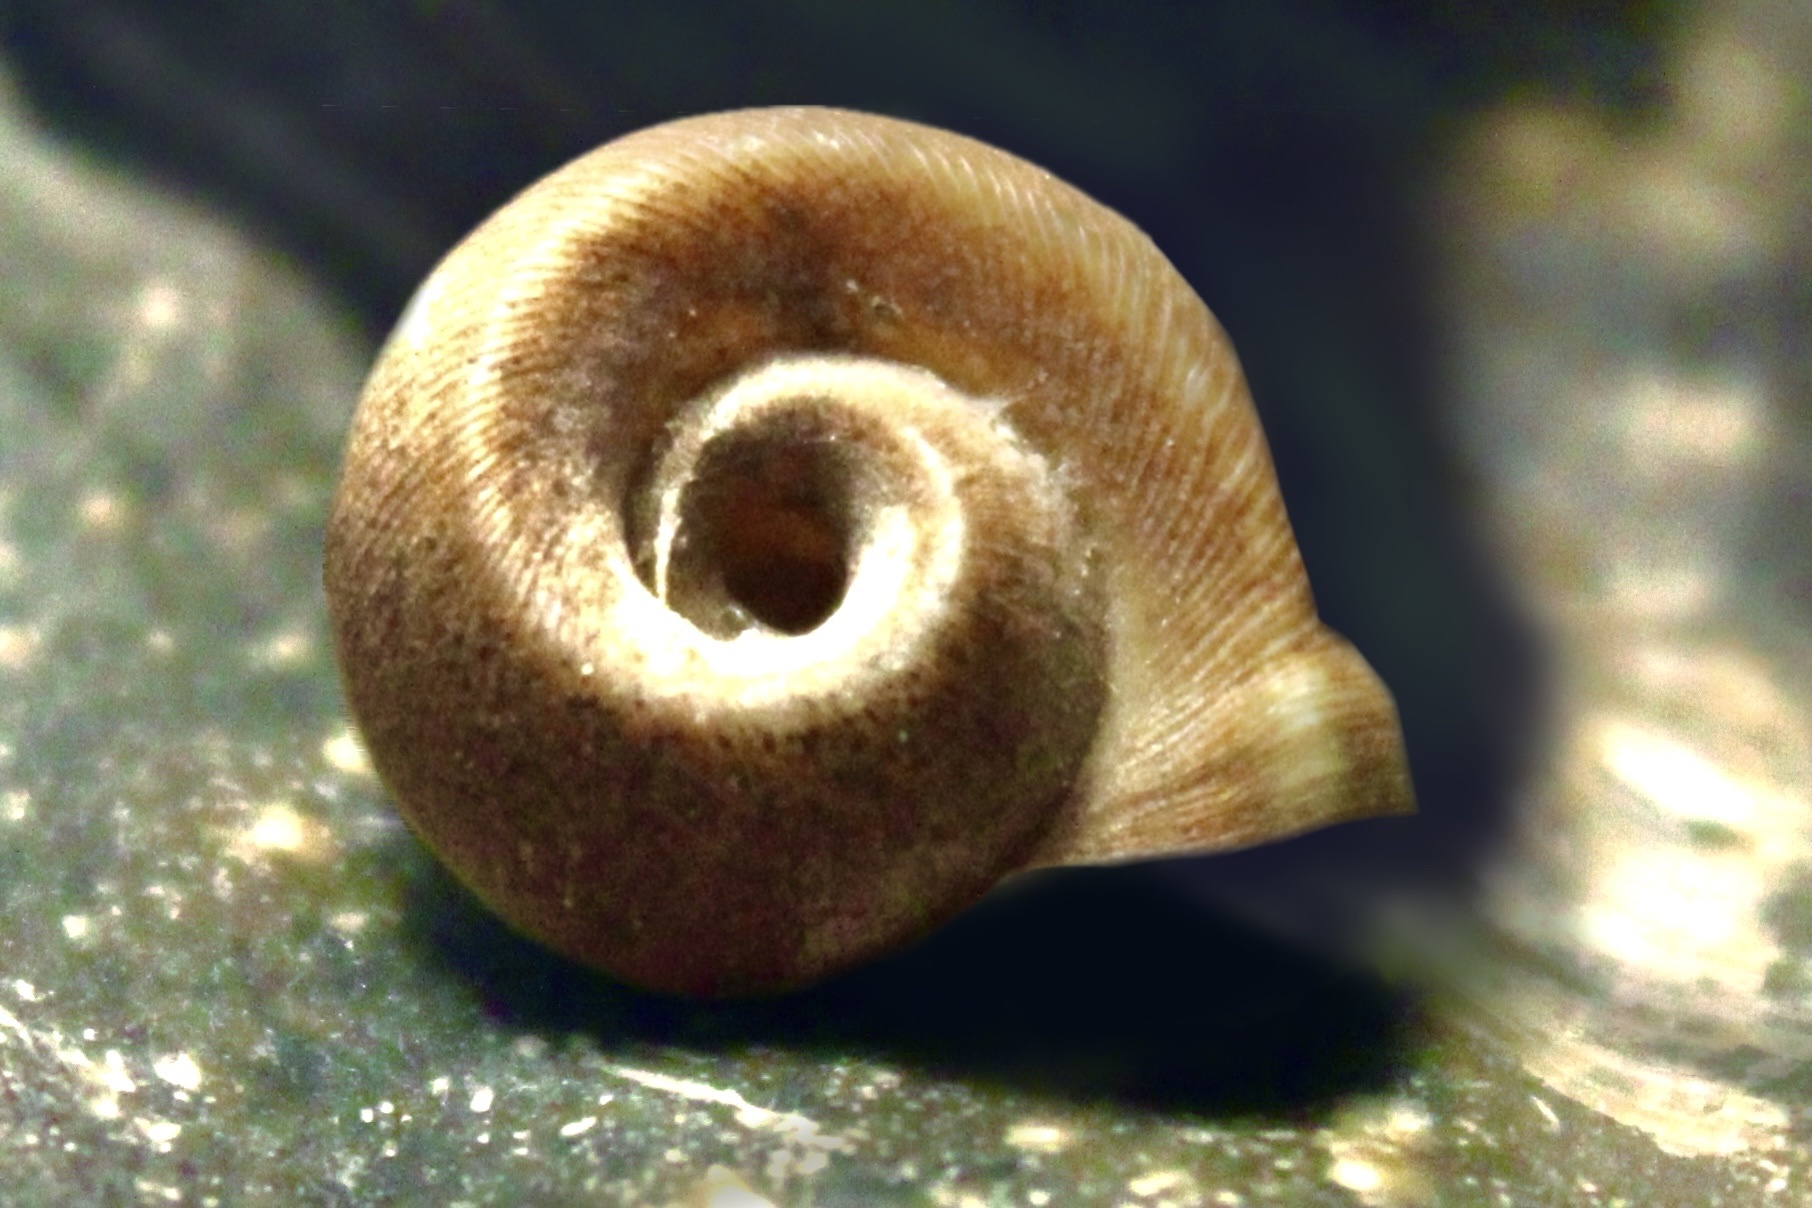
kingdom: Animalia
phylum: Mollusca
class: Gastropoda
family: Planorbidae
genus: Planorbella
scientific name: Planorbella campanulata
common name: Bellmouth ramshorn
